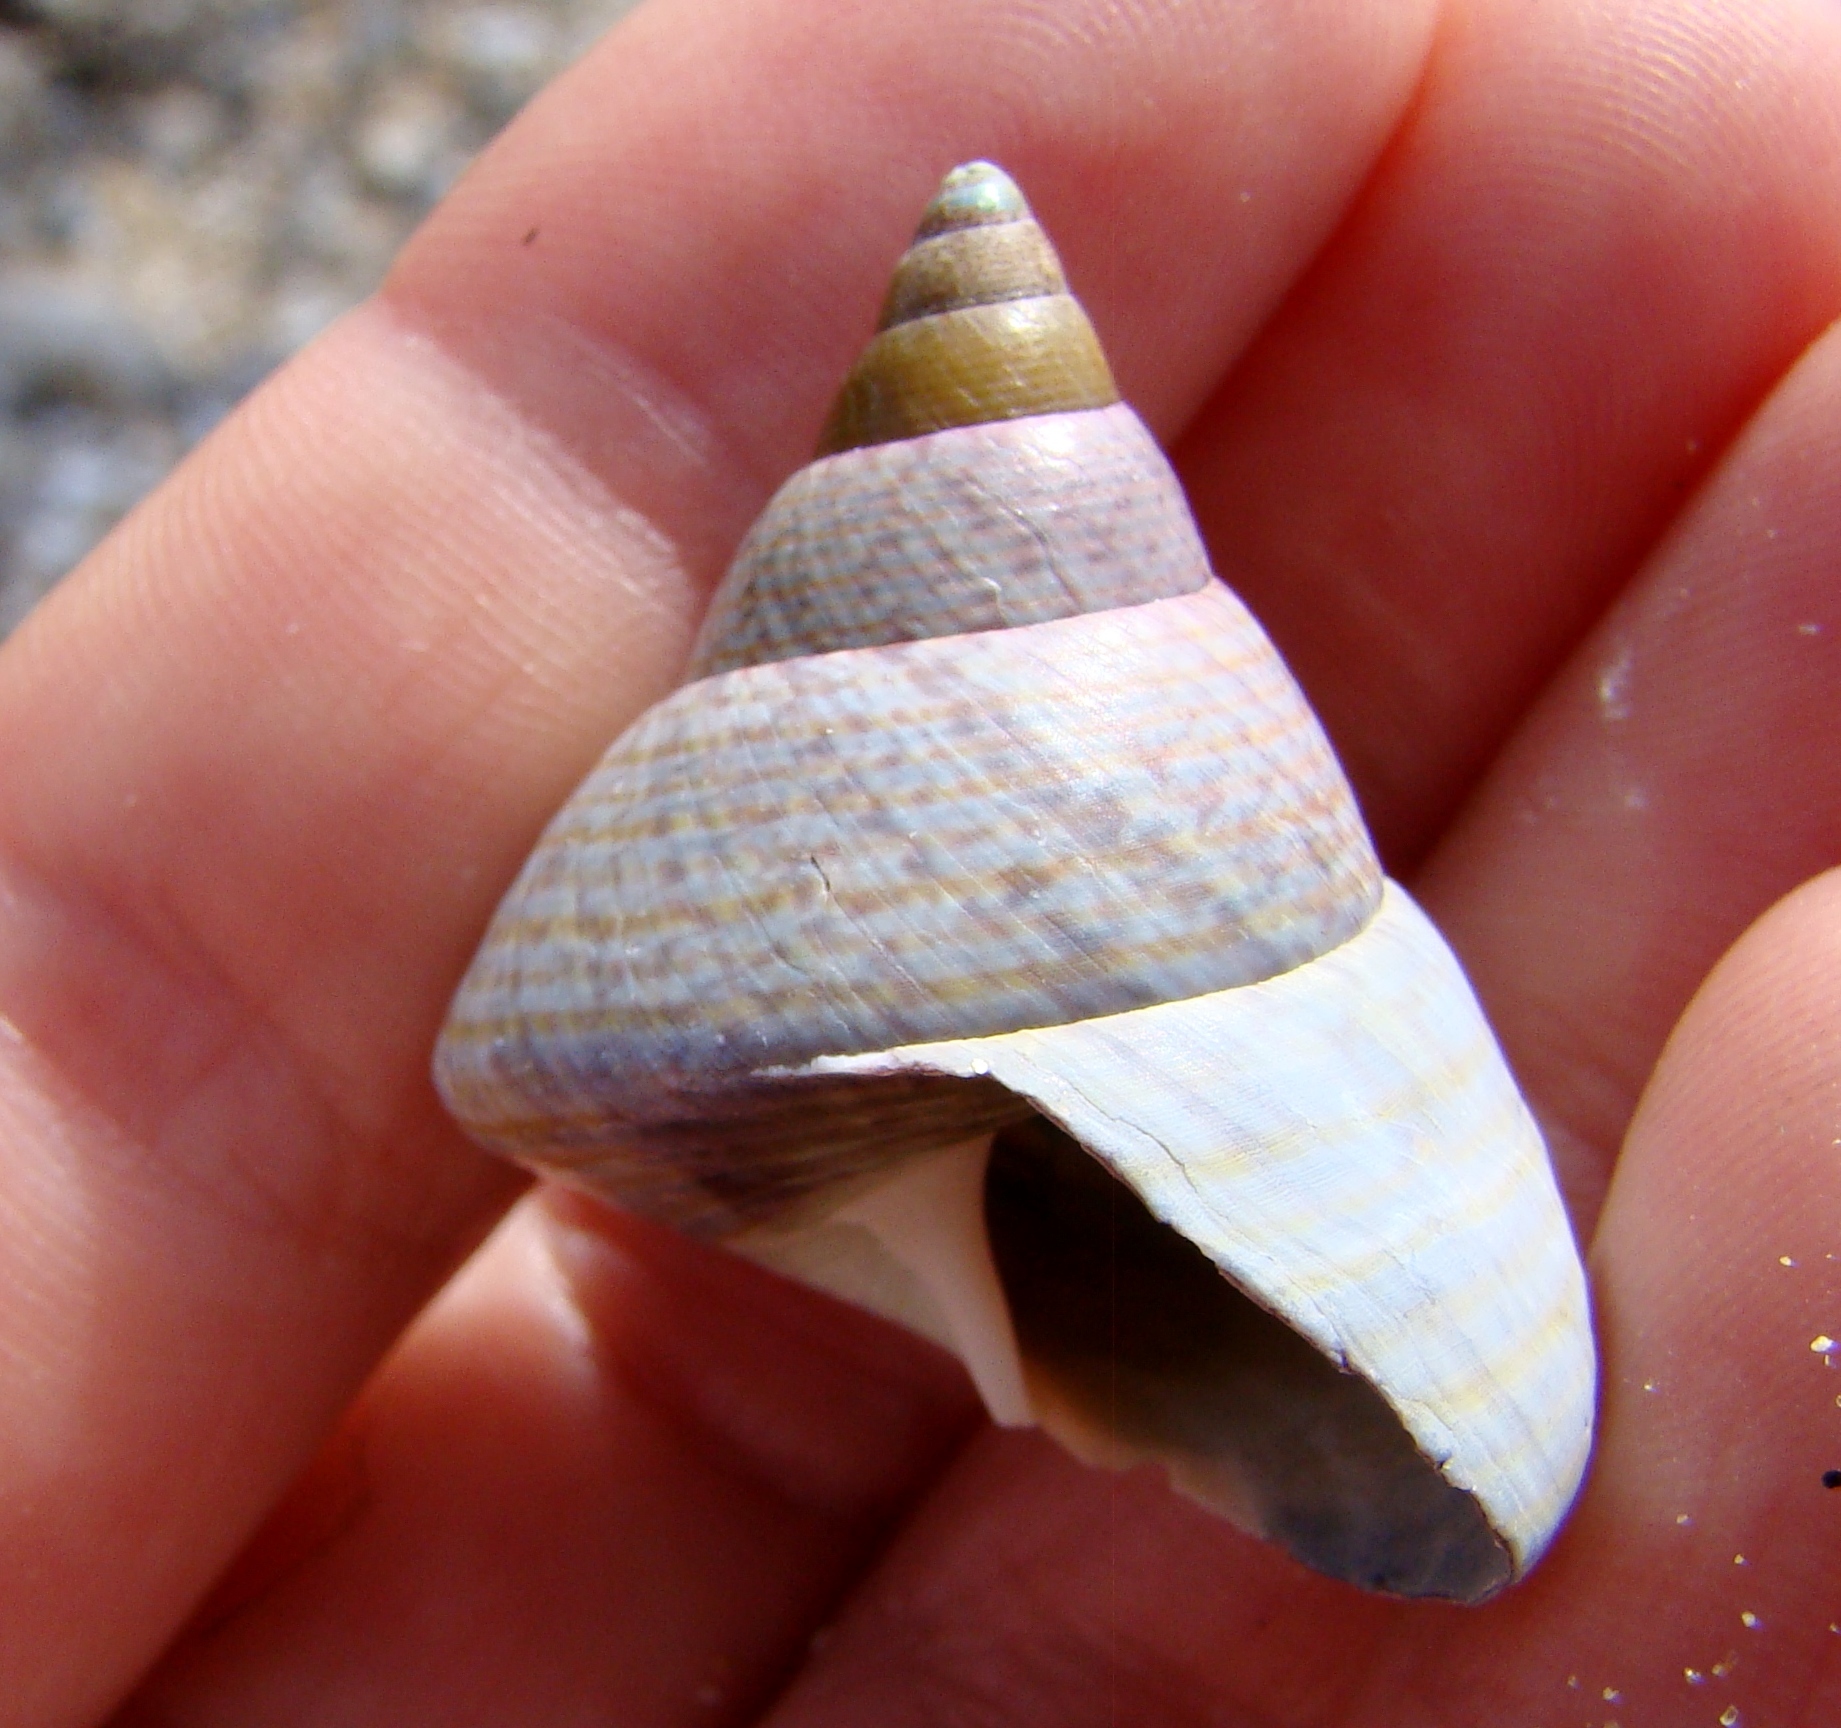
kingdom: Animalia
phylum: Mollusca
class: Gastropoda
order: Trochida
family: Trochidae
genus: Cantharidus
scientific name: Cantharidus opalus
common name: Opal jewel topsnail
